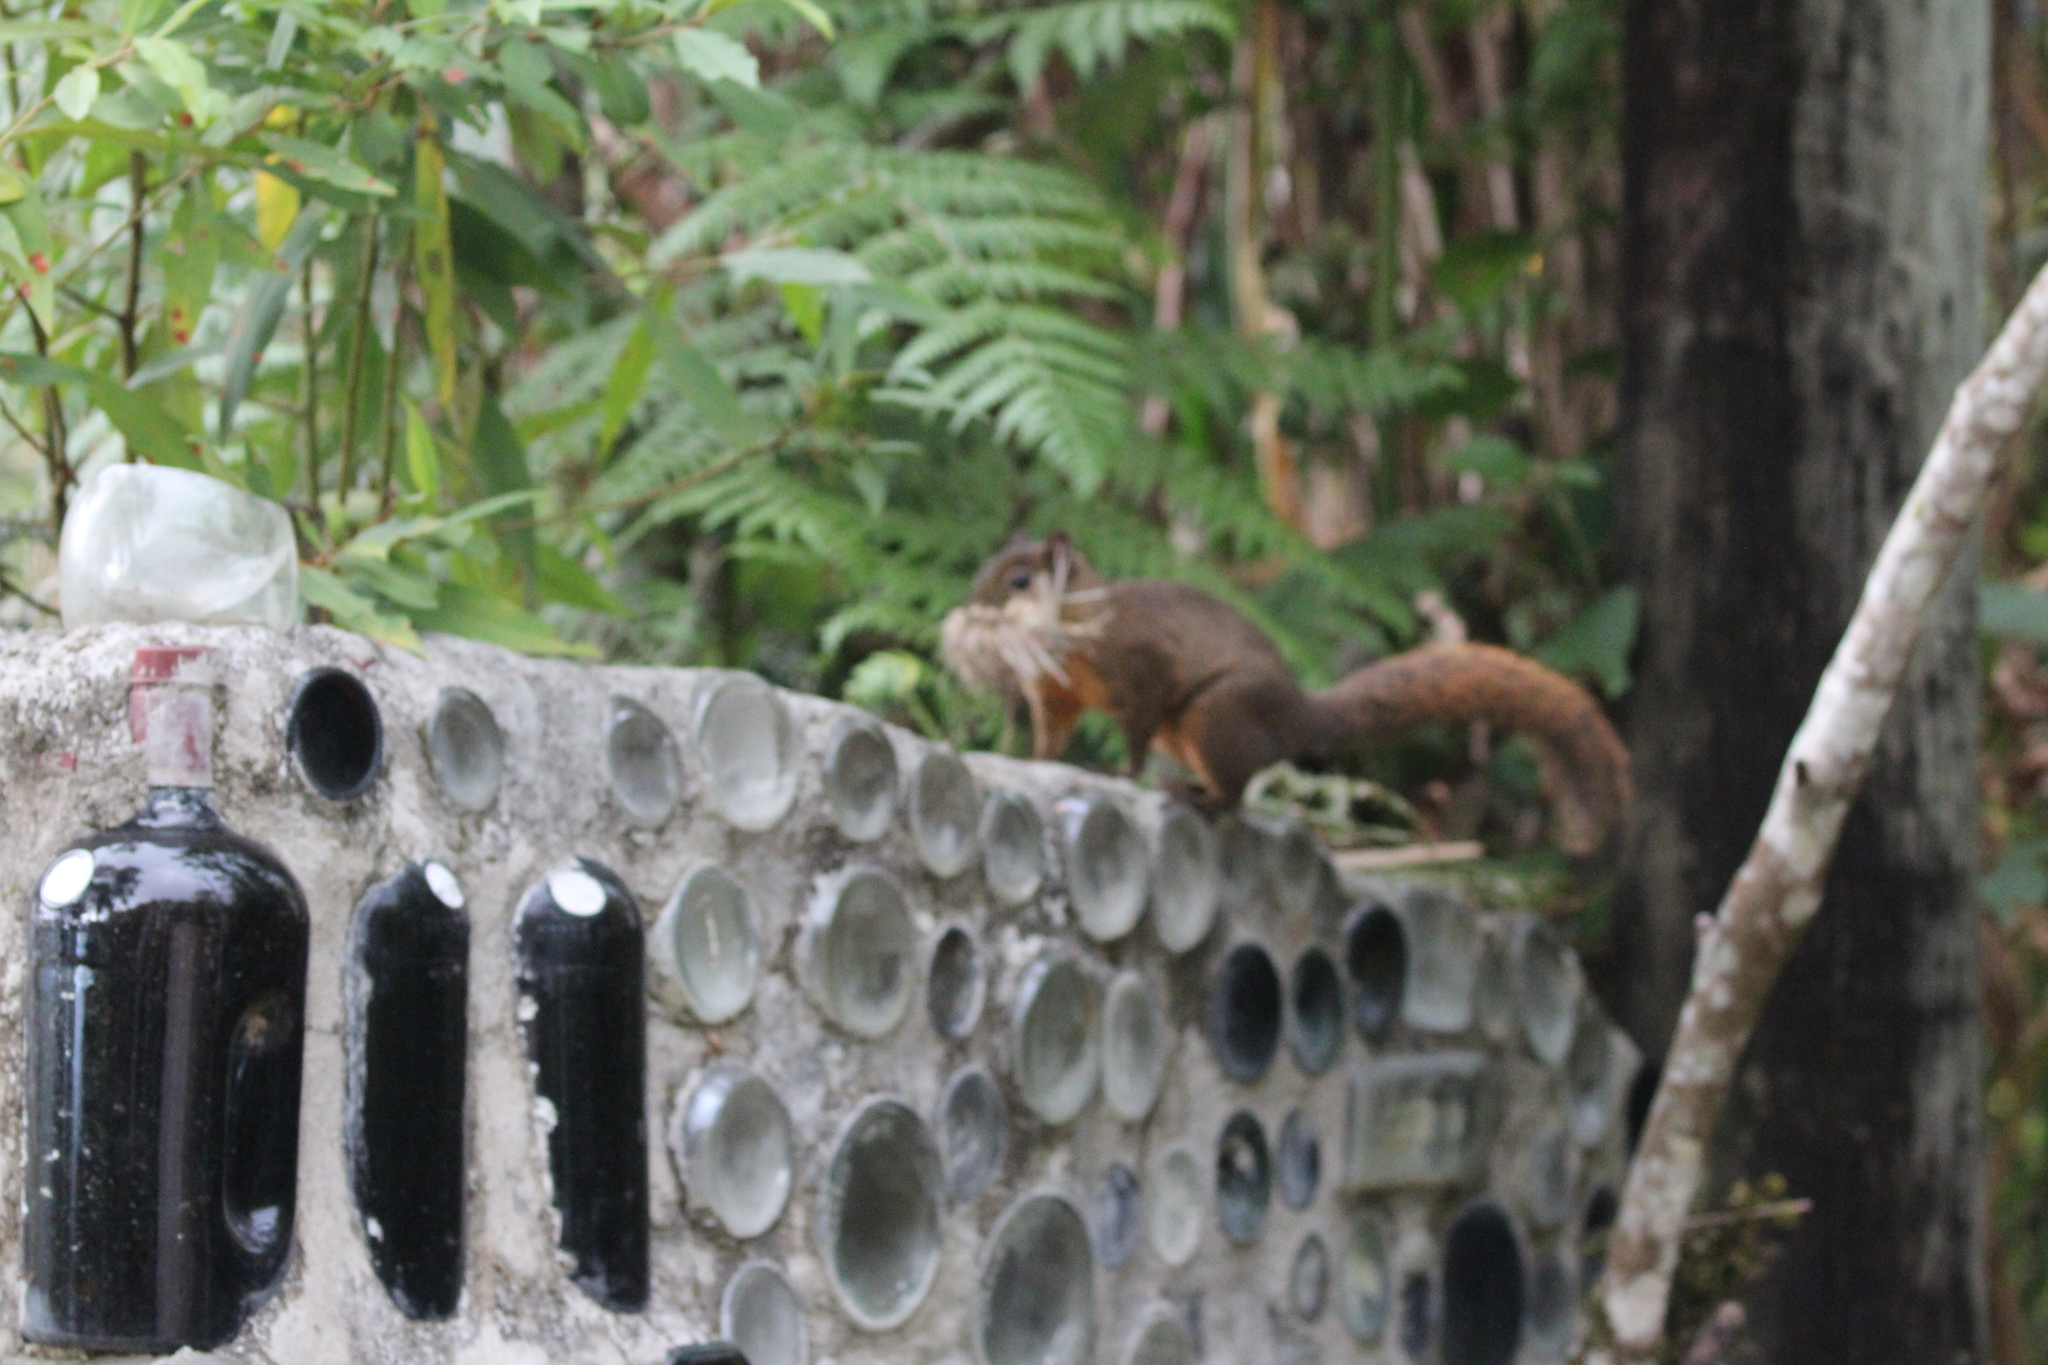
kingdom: Animalia
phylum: Chordata
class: Mammalia
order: Rodentia
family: Sciuridae
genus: Sciurus
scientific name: Sciurus granatensis
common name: Red-tailed squirrel
